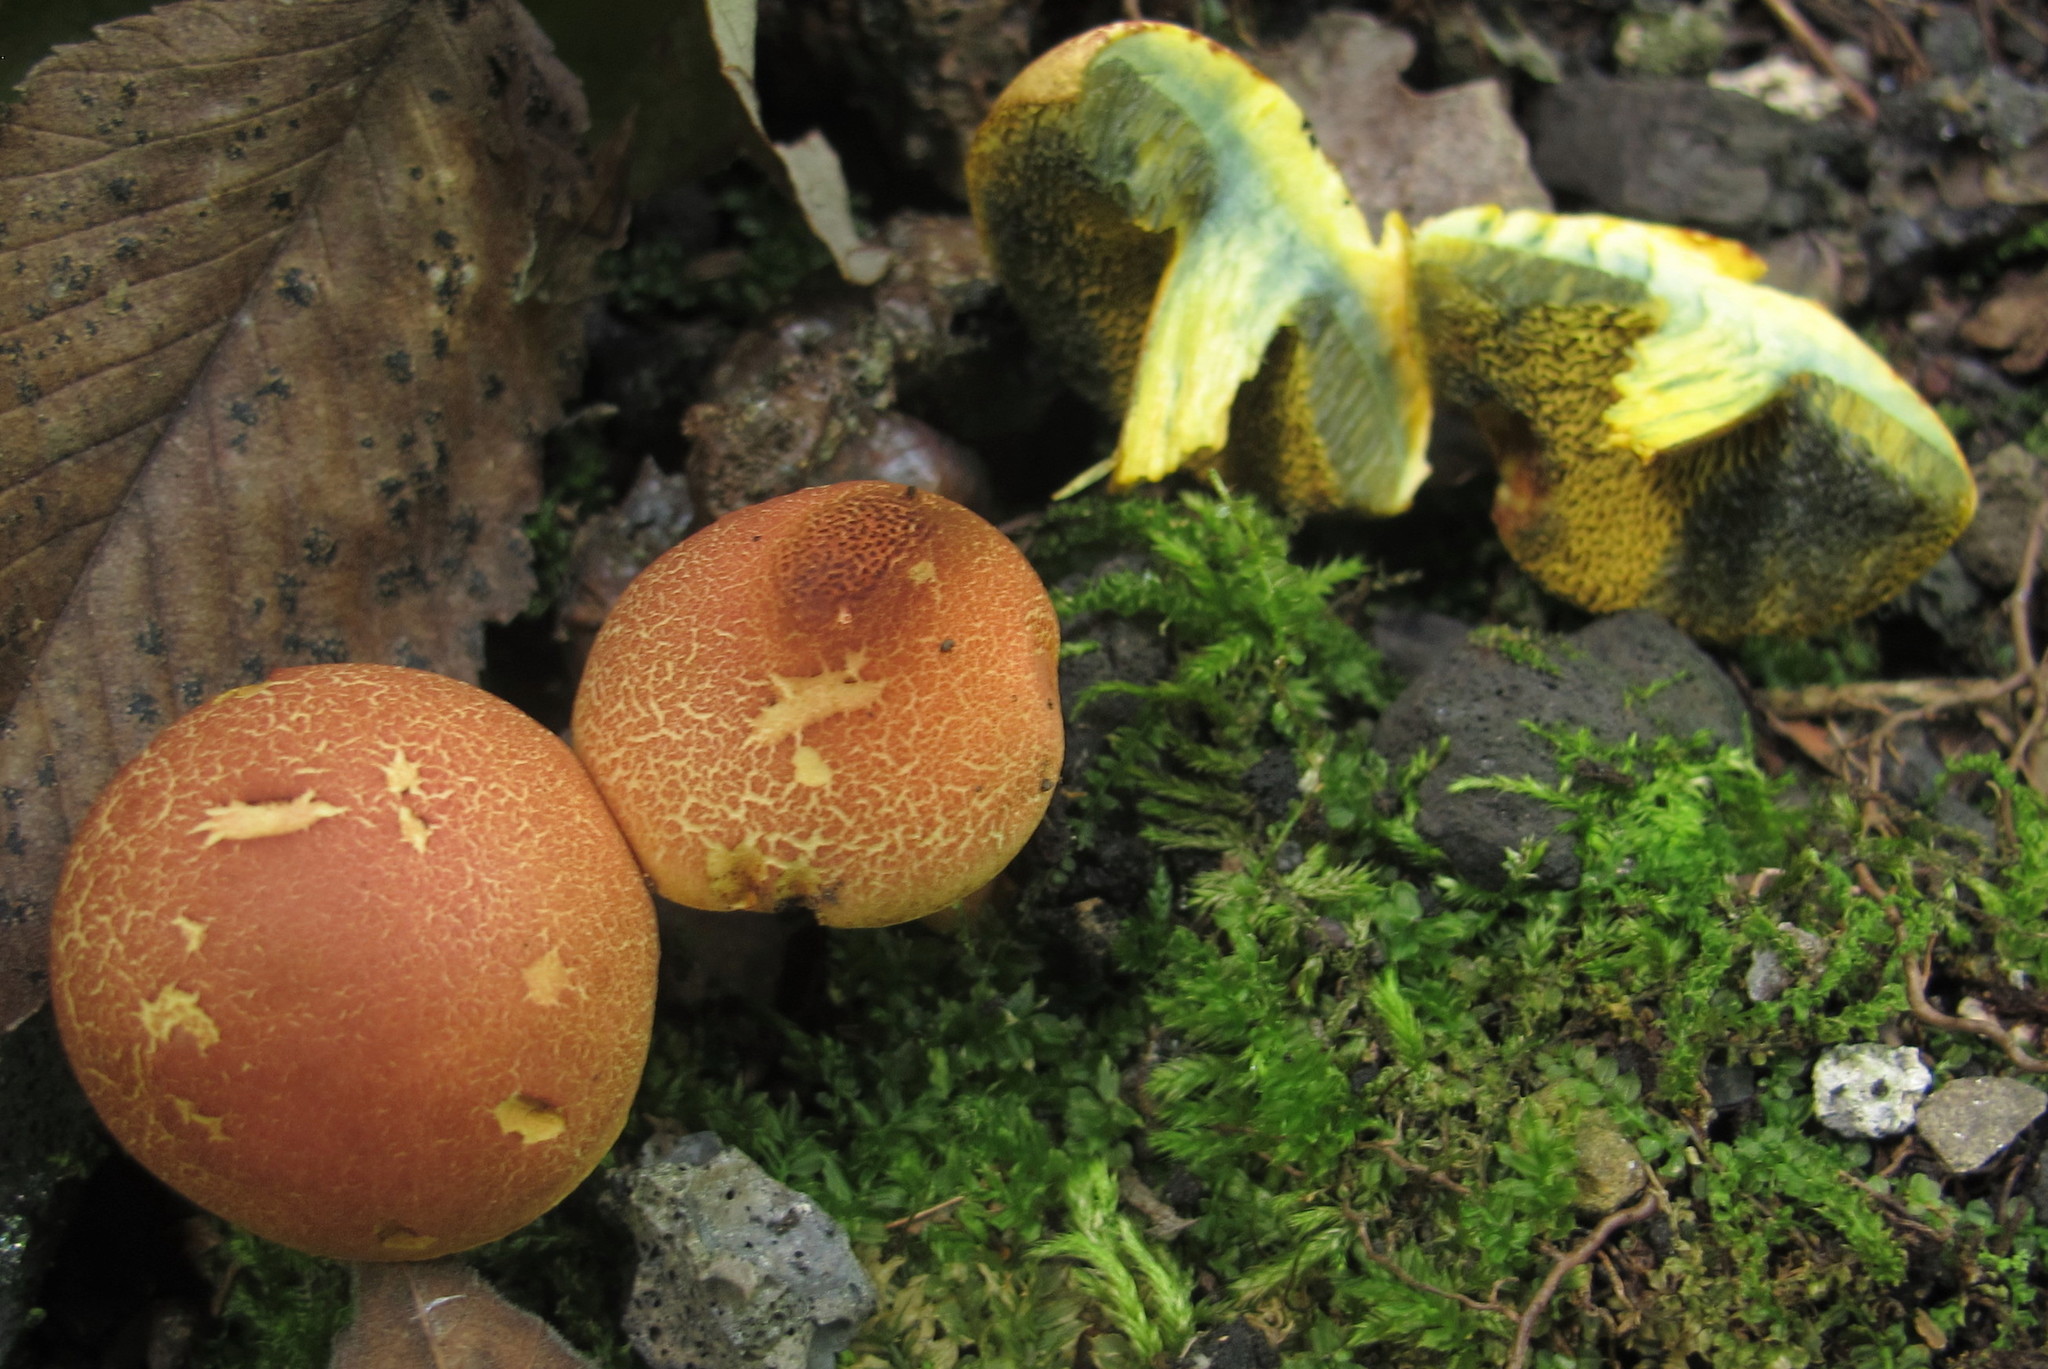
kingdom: Fungi
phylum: Basidiomycota
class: Agaricomycetes
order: Boletales
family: Boletaceae
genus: Hortiboletus
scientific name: Hortiboletus rubellus
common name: Ruby bolete
